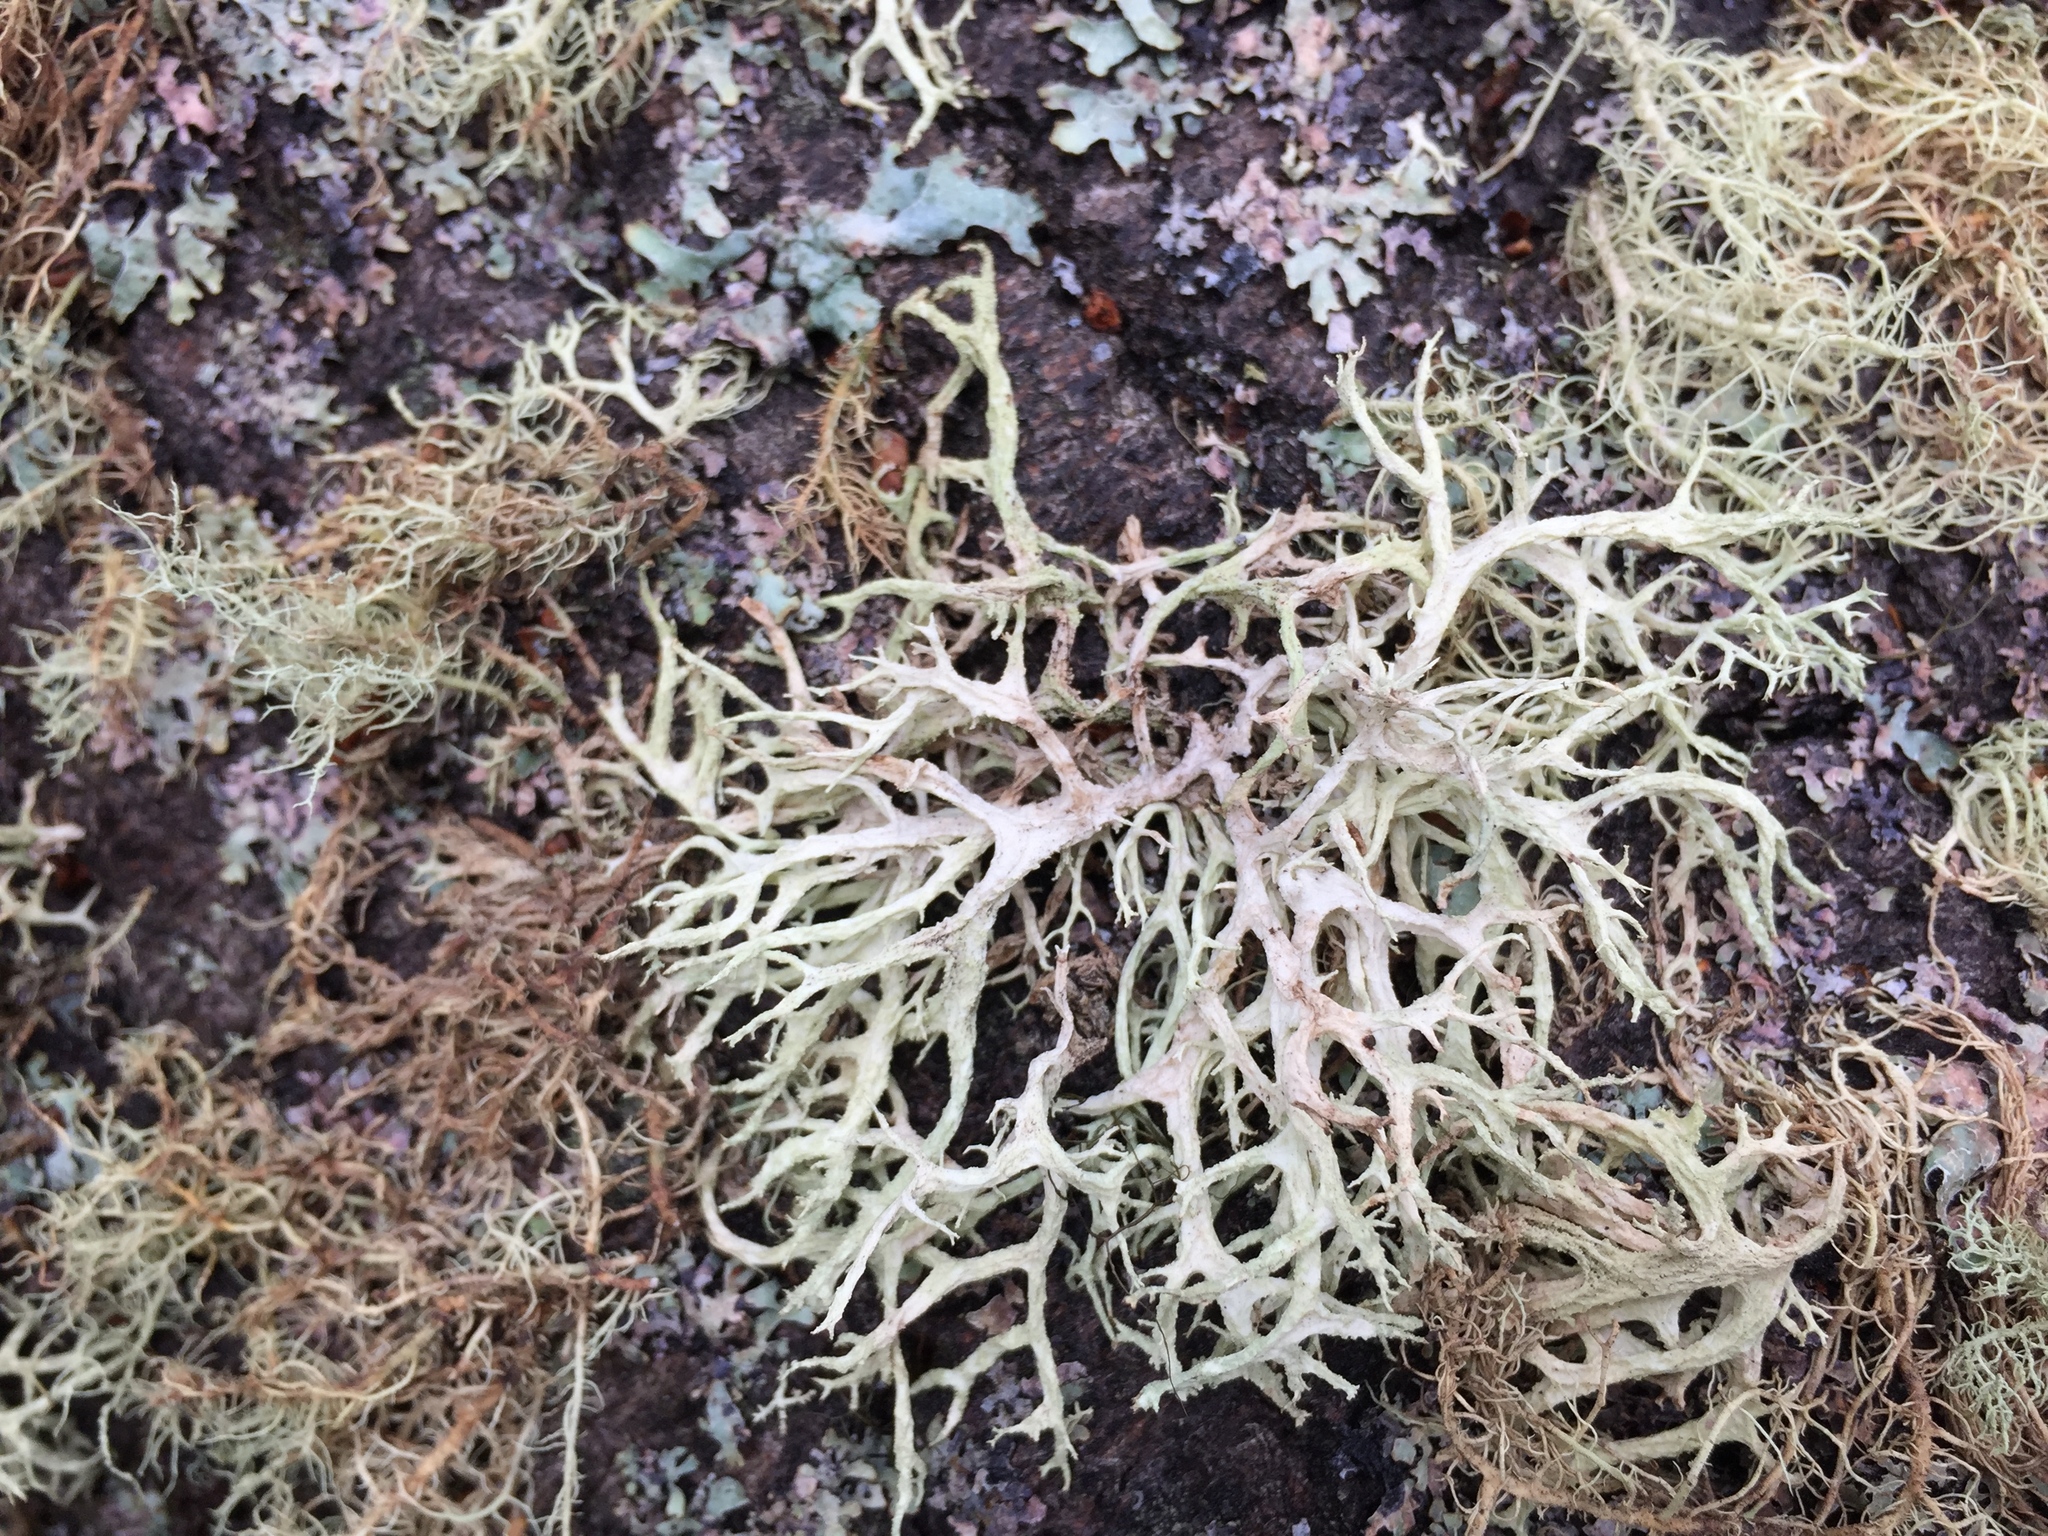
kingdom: Fungi
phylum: Ascomycota
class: Lecanoromycetes
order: Lecanorales
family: Parmeliaceae
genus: Evernia
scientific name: Evernia mesomorpha
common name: Boreal oak moss lichen
